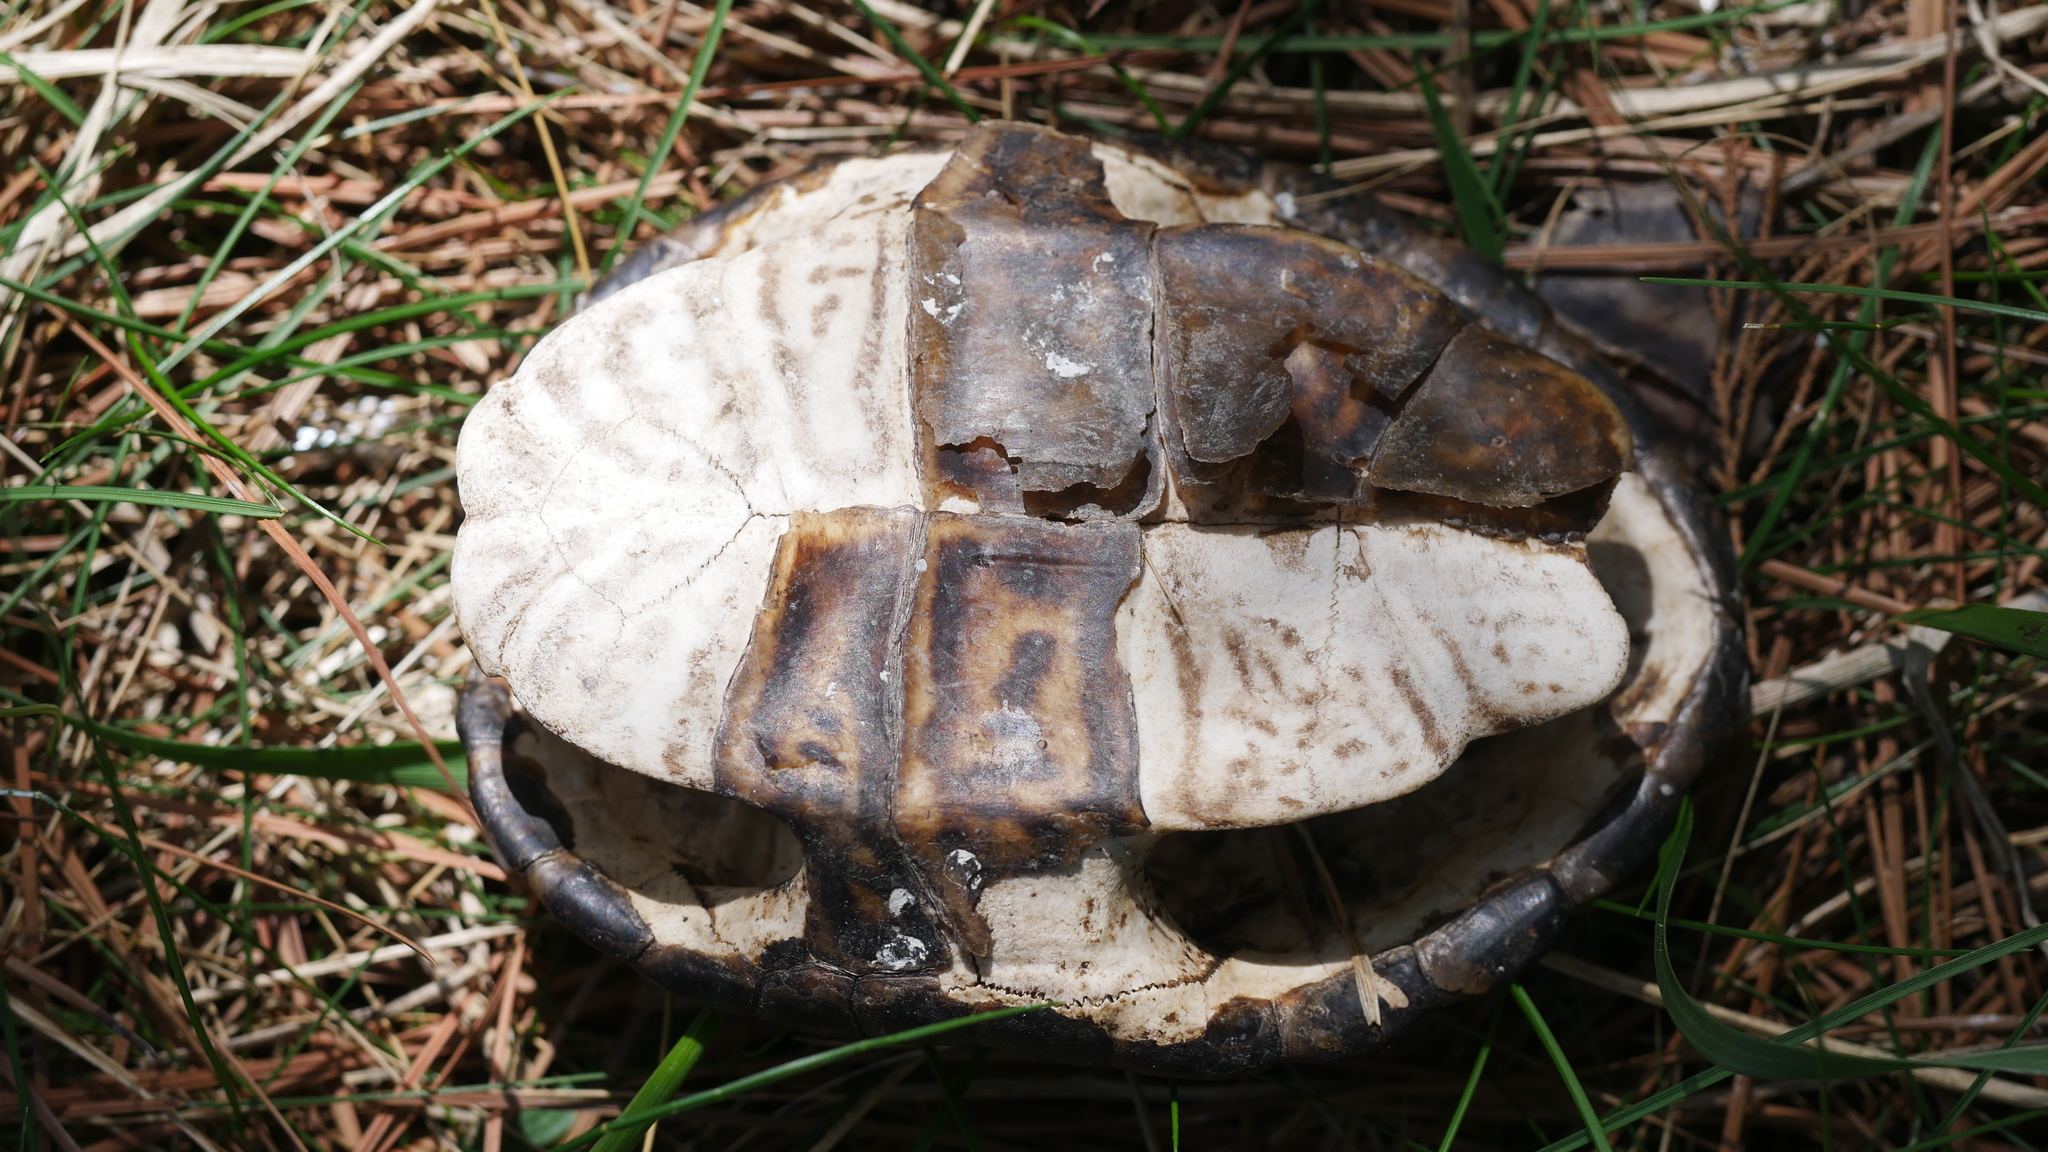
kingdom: Animalia
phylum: Chordata
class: Testudines
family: Emydidae
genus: Malaclemys
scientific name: Malaclemys terrapin
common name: Diamondback terrapin
